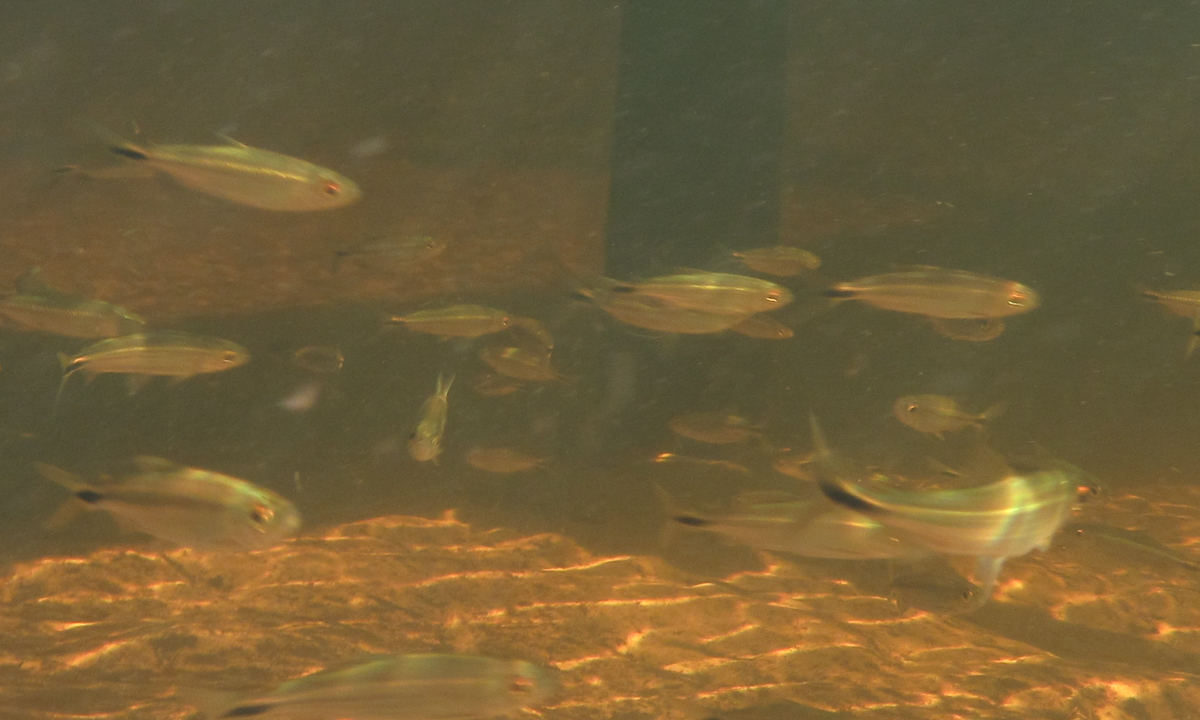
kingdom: Animalia
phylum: Chordata
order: Characiformes
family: Alestidae
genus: Alestes
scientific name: Alestes
